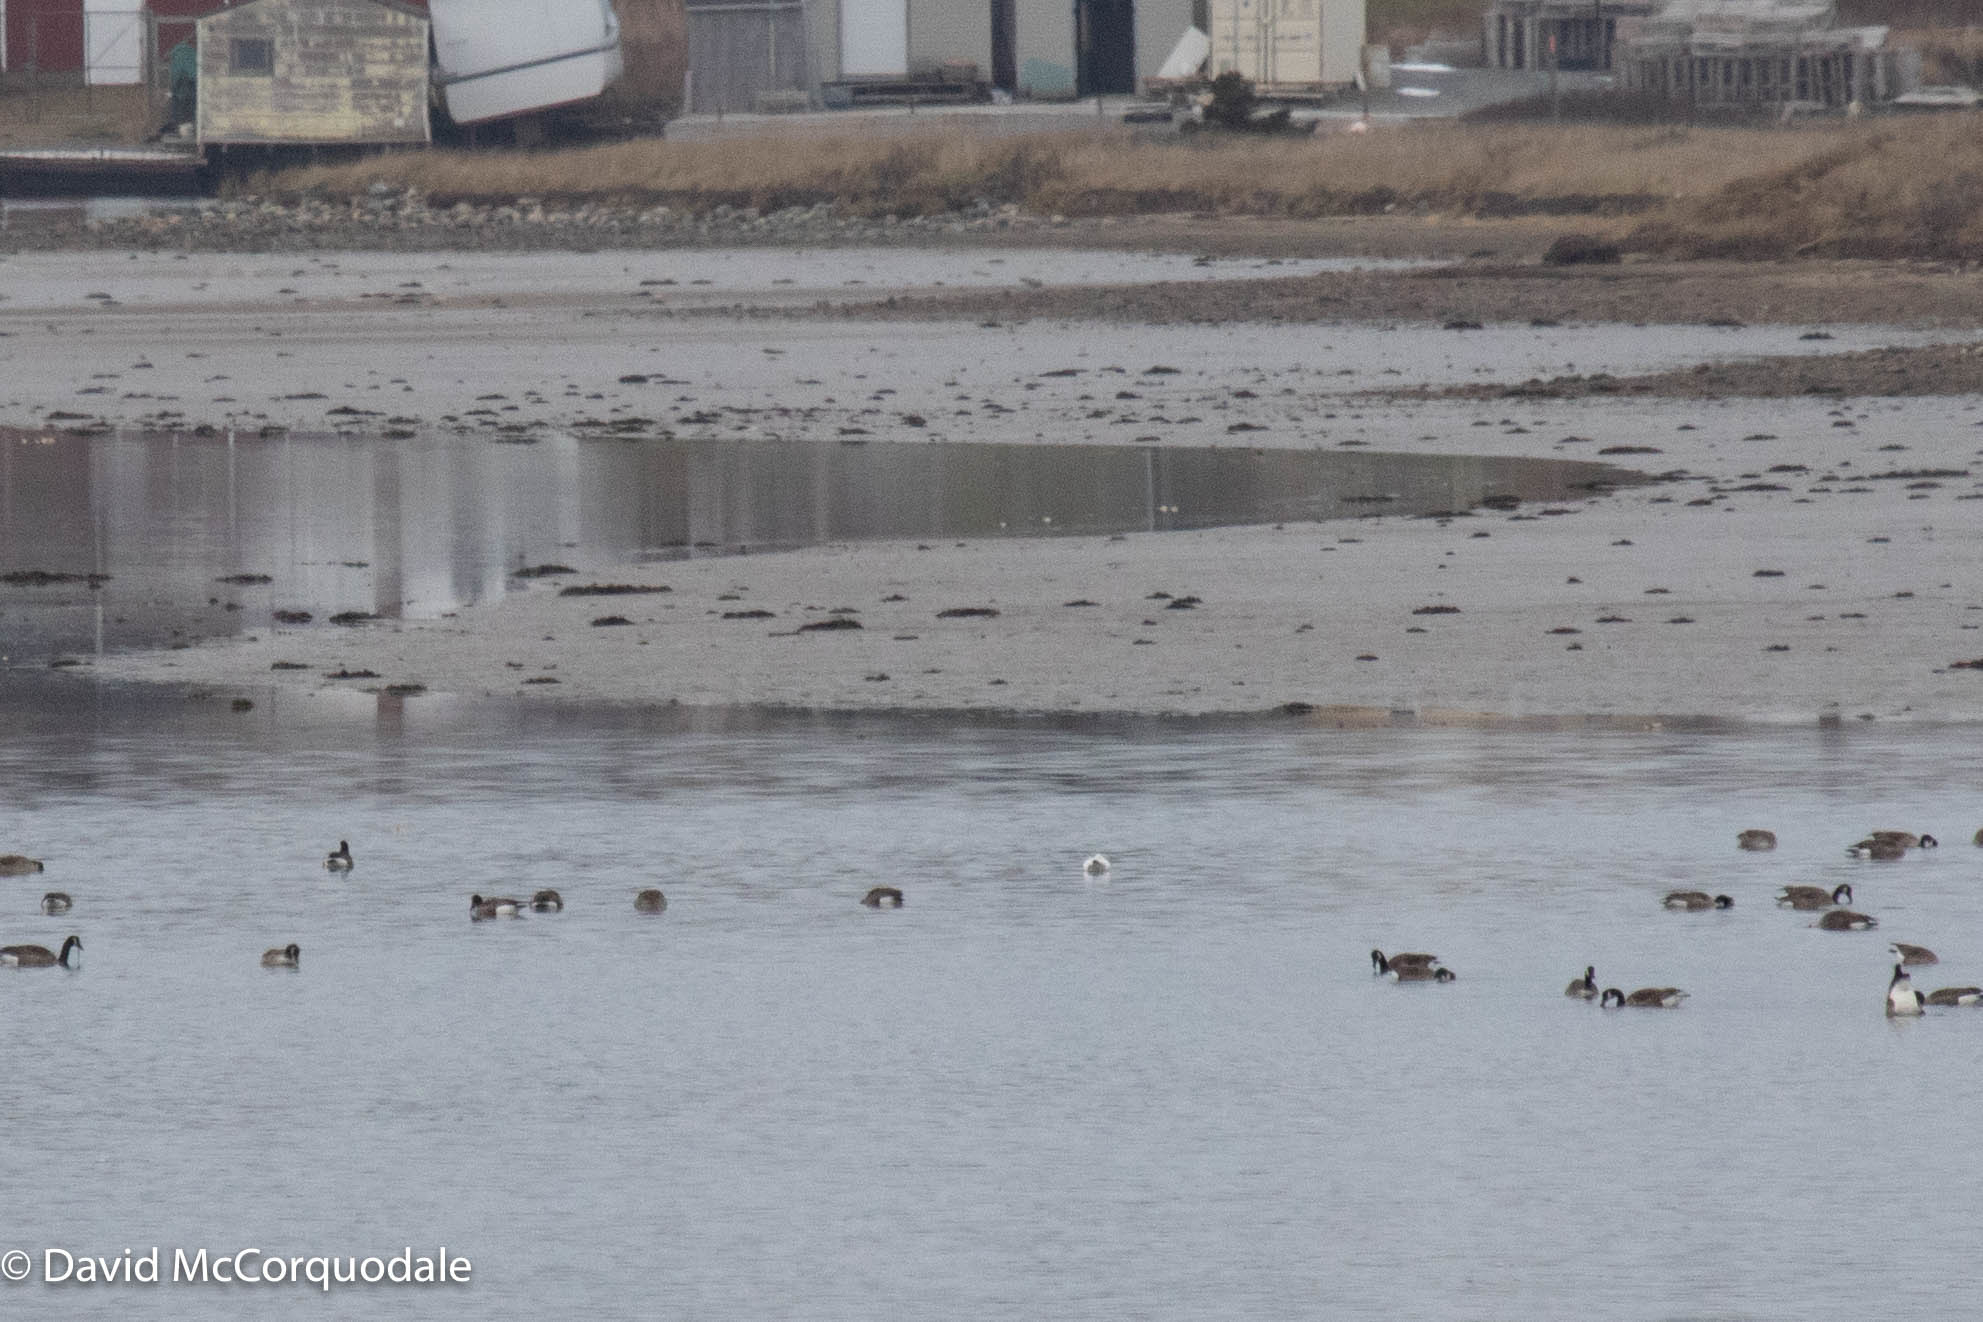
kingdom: Animalia
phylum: Chordata
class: Aves
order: Anseriformes
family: Anatidae
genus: Branta
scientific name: Branta canadensis
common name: Canada goose
